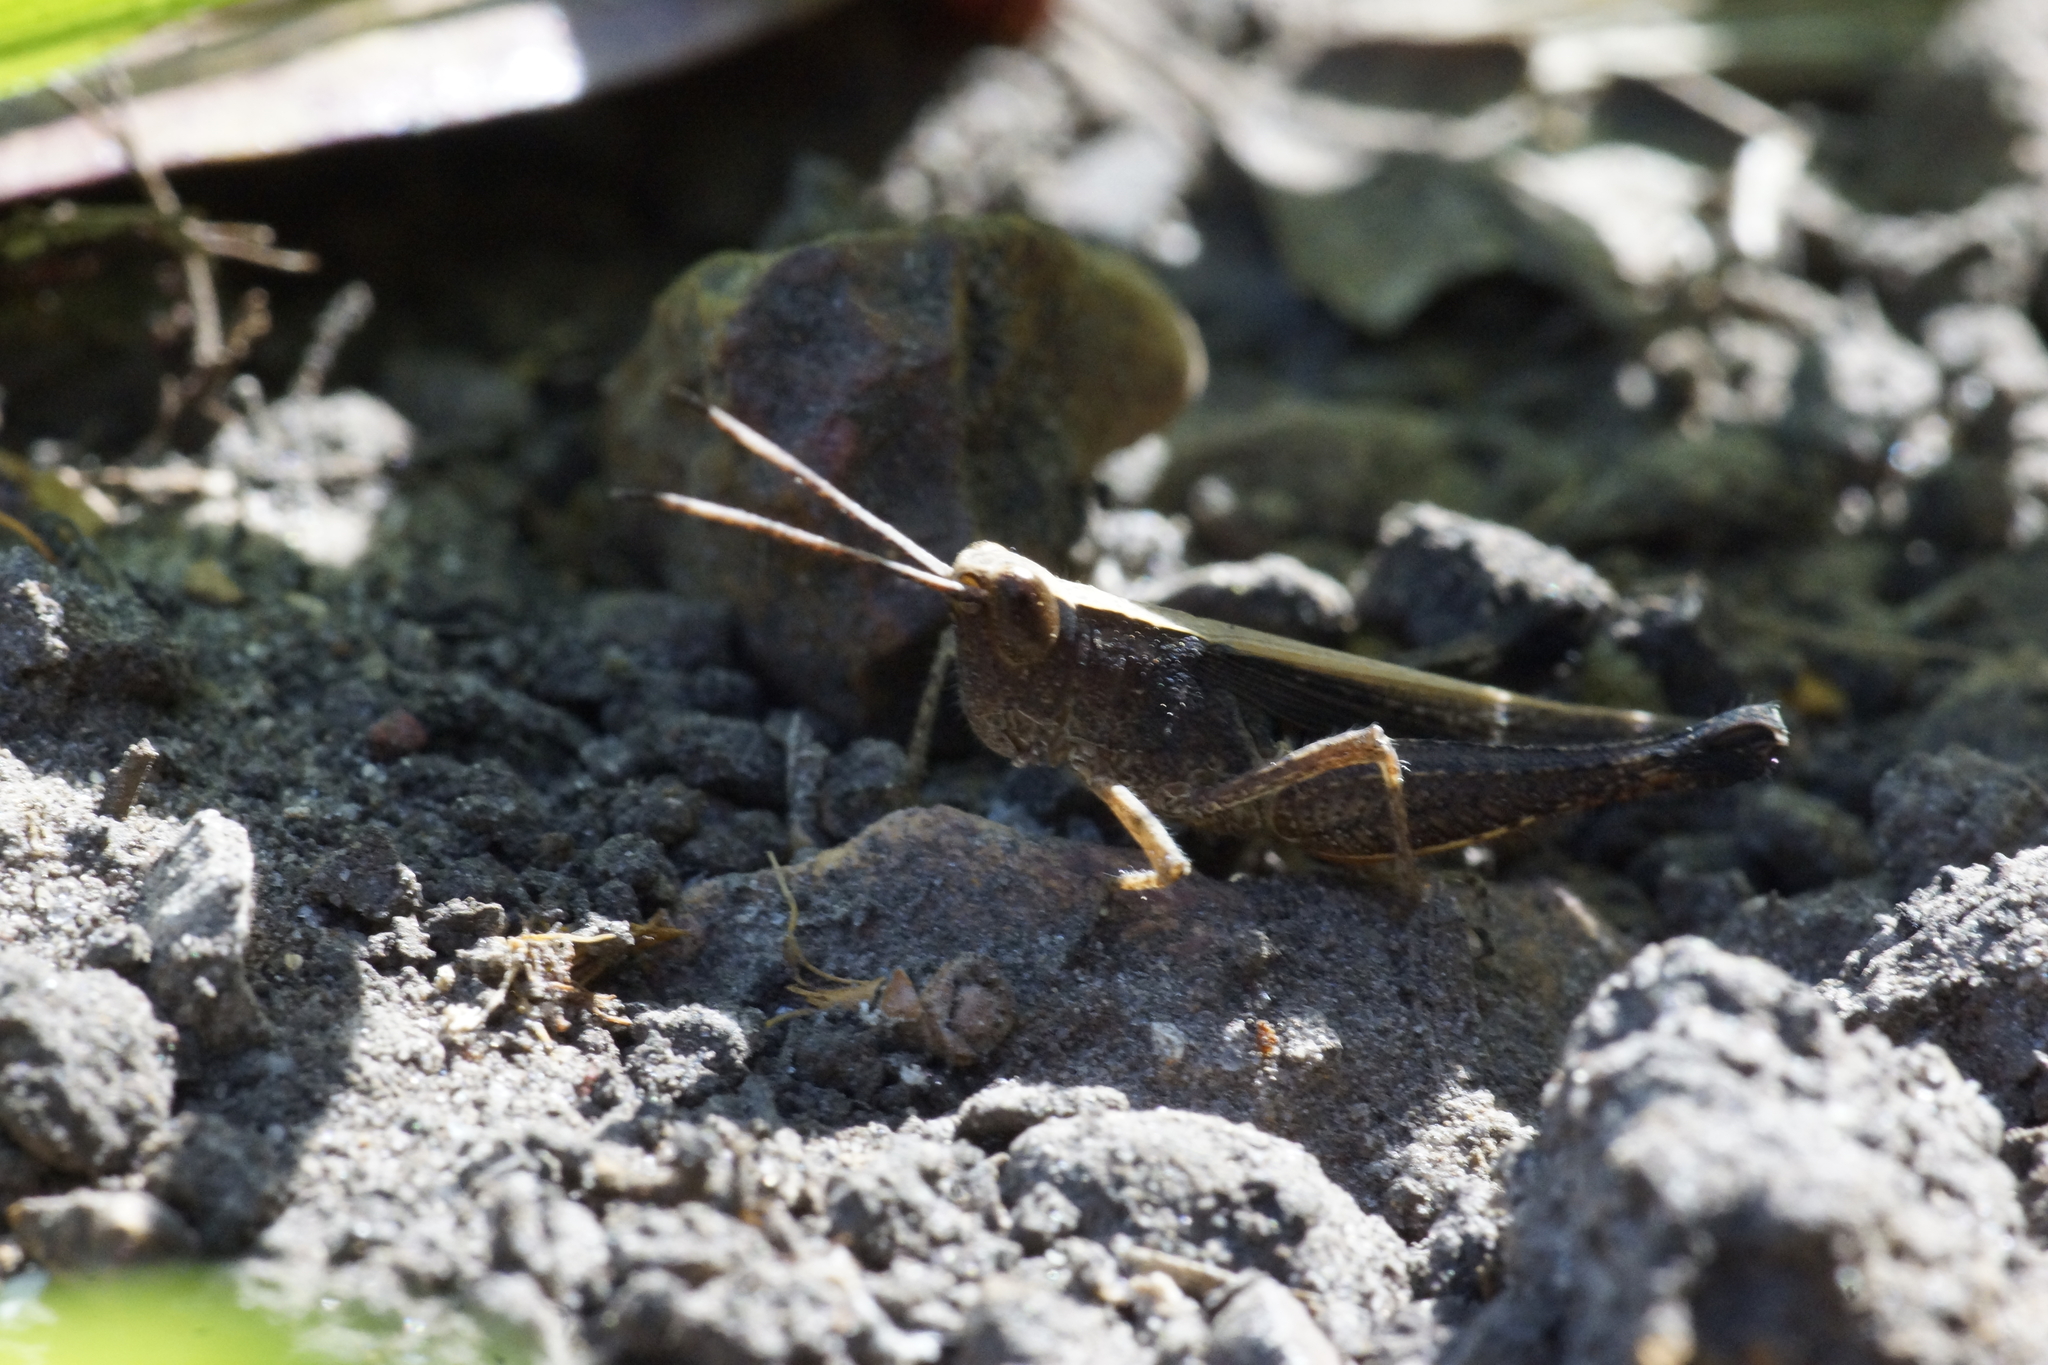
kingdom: Animalia
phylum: Arthropoda
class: Insecta
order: Orthoptera
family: Acrididae
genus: Rectitropis
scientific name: Rectitropis exclusa
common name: Territory white-tips
